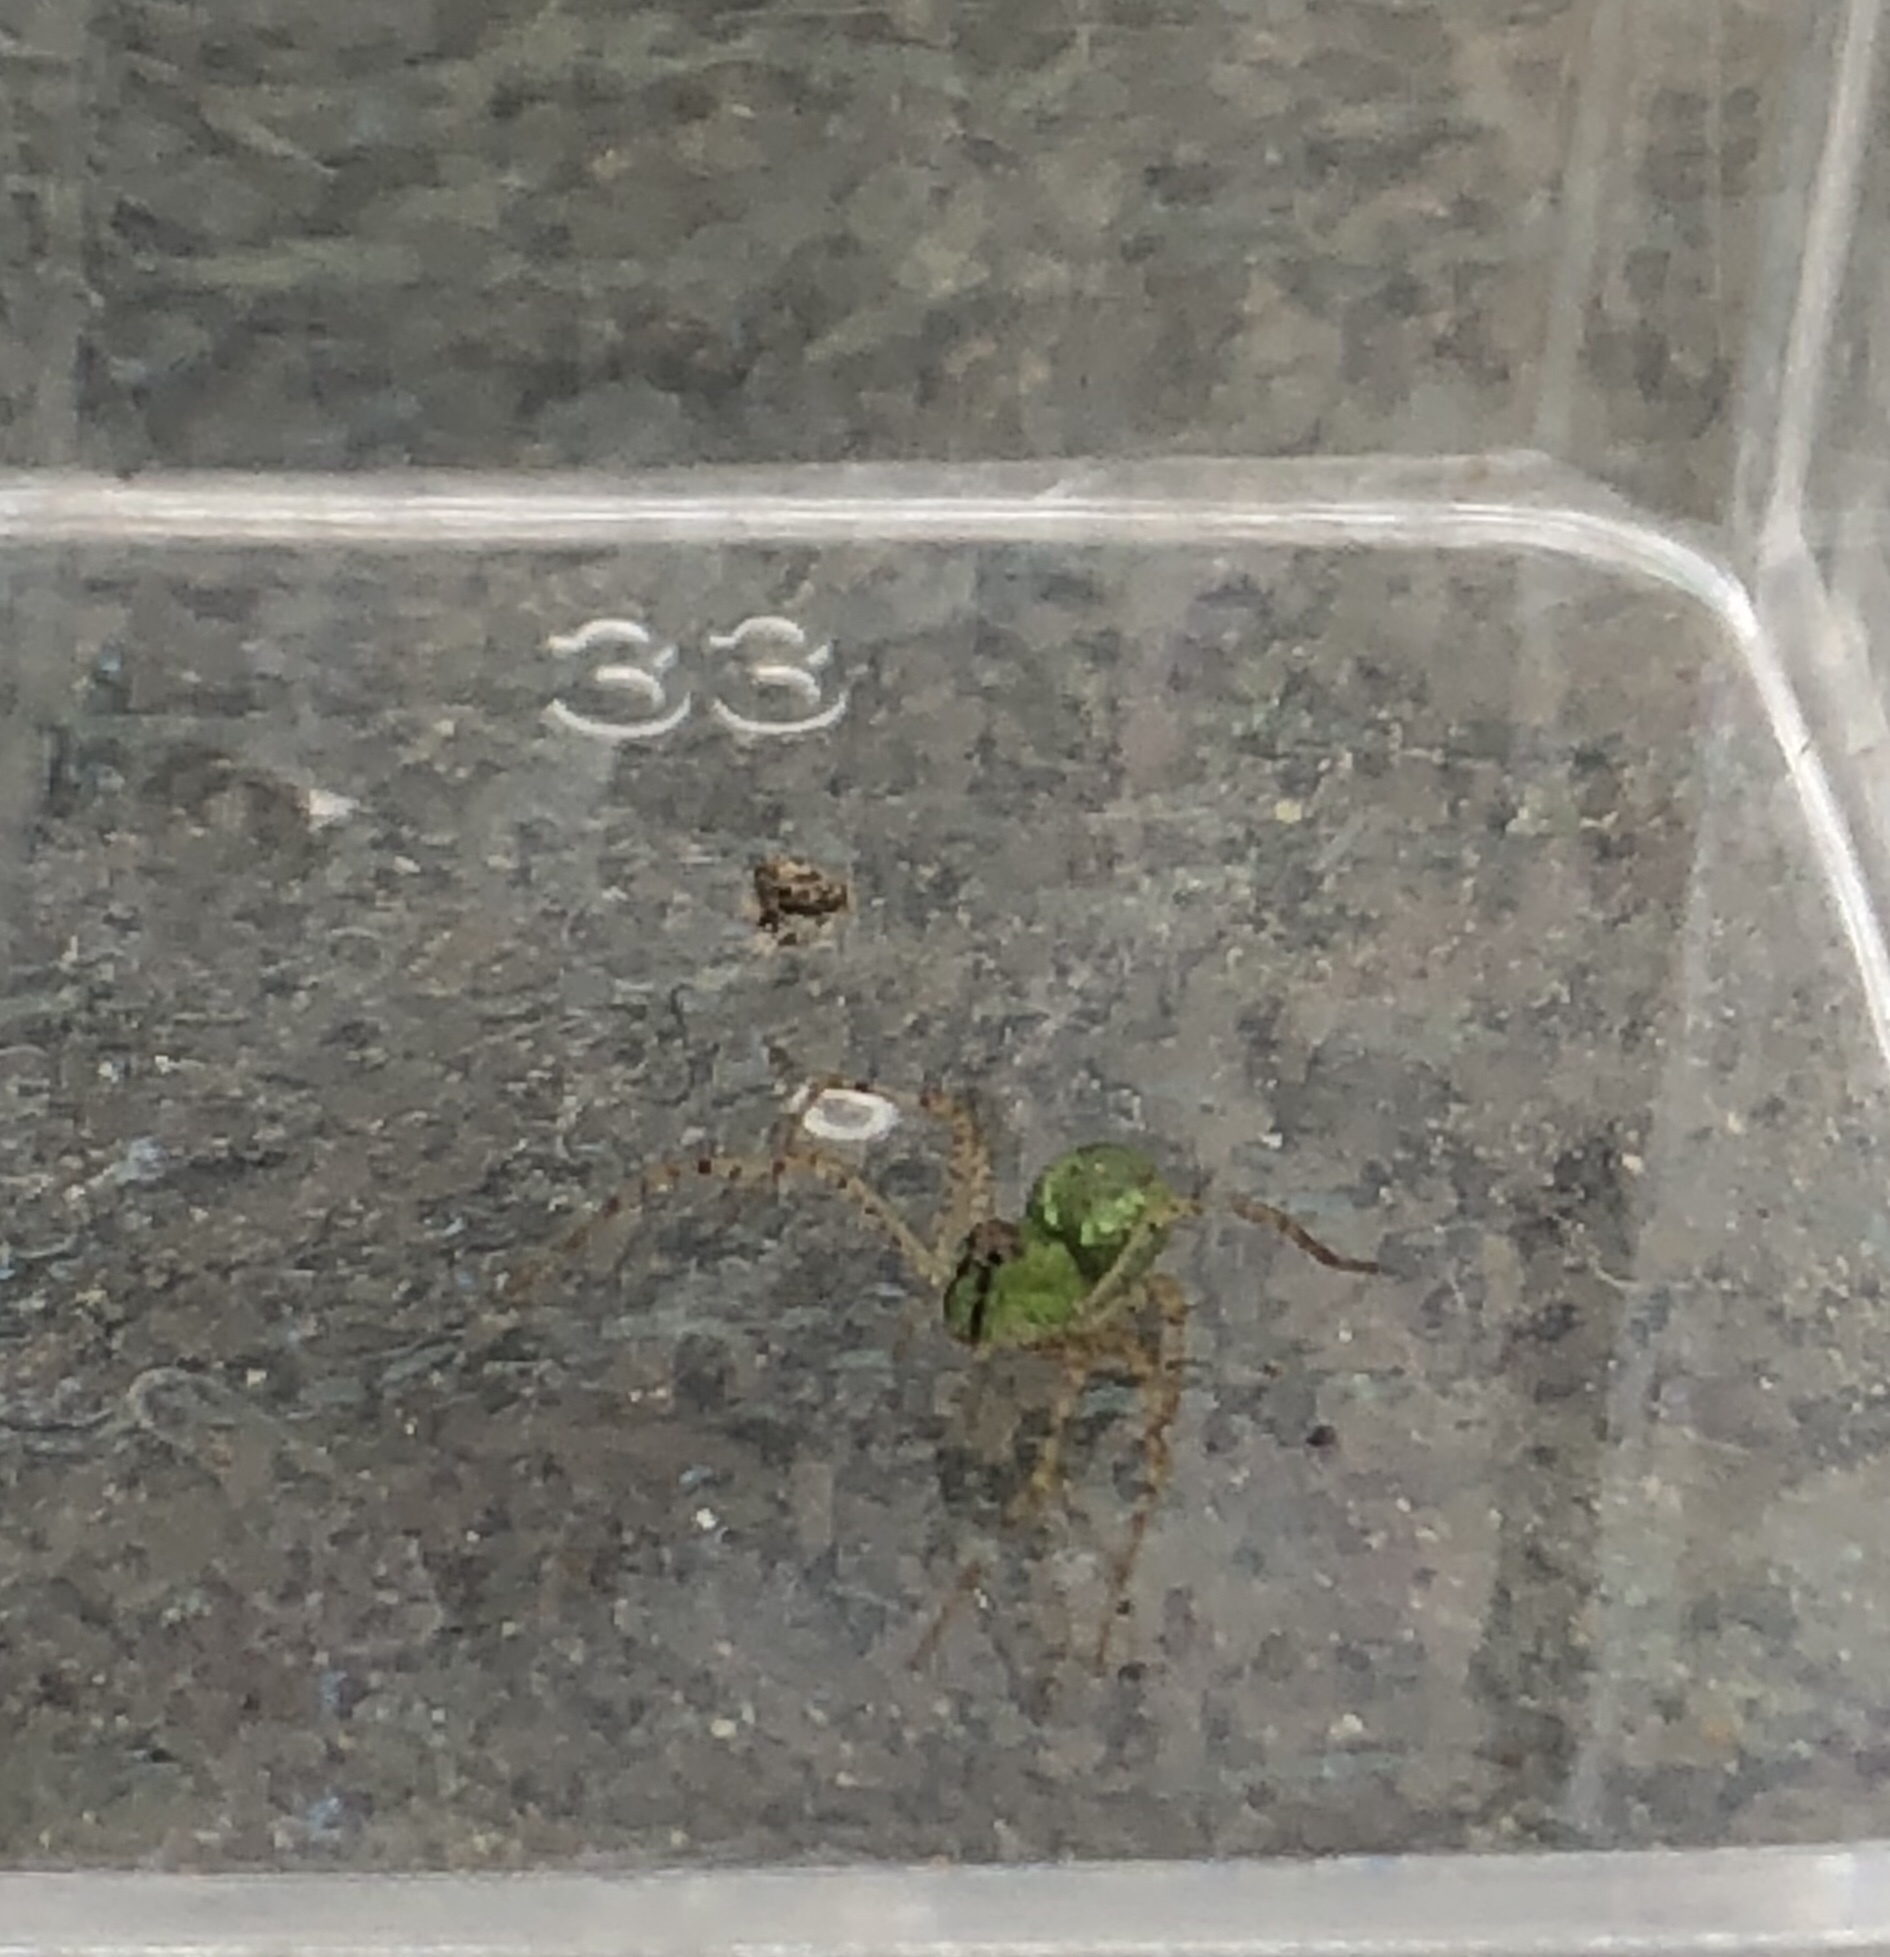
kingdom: Animalia
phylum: Arthropoda
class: Arachnida
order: Araneae
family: Oxyopidae
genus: Peucetia
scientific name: Peucetia viridans
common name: Lynx spiders
